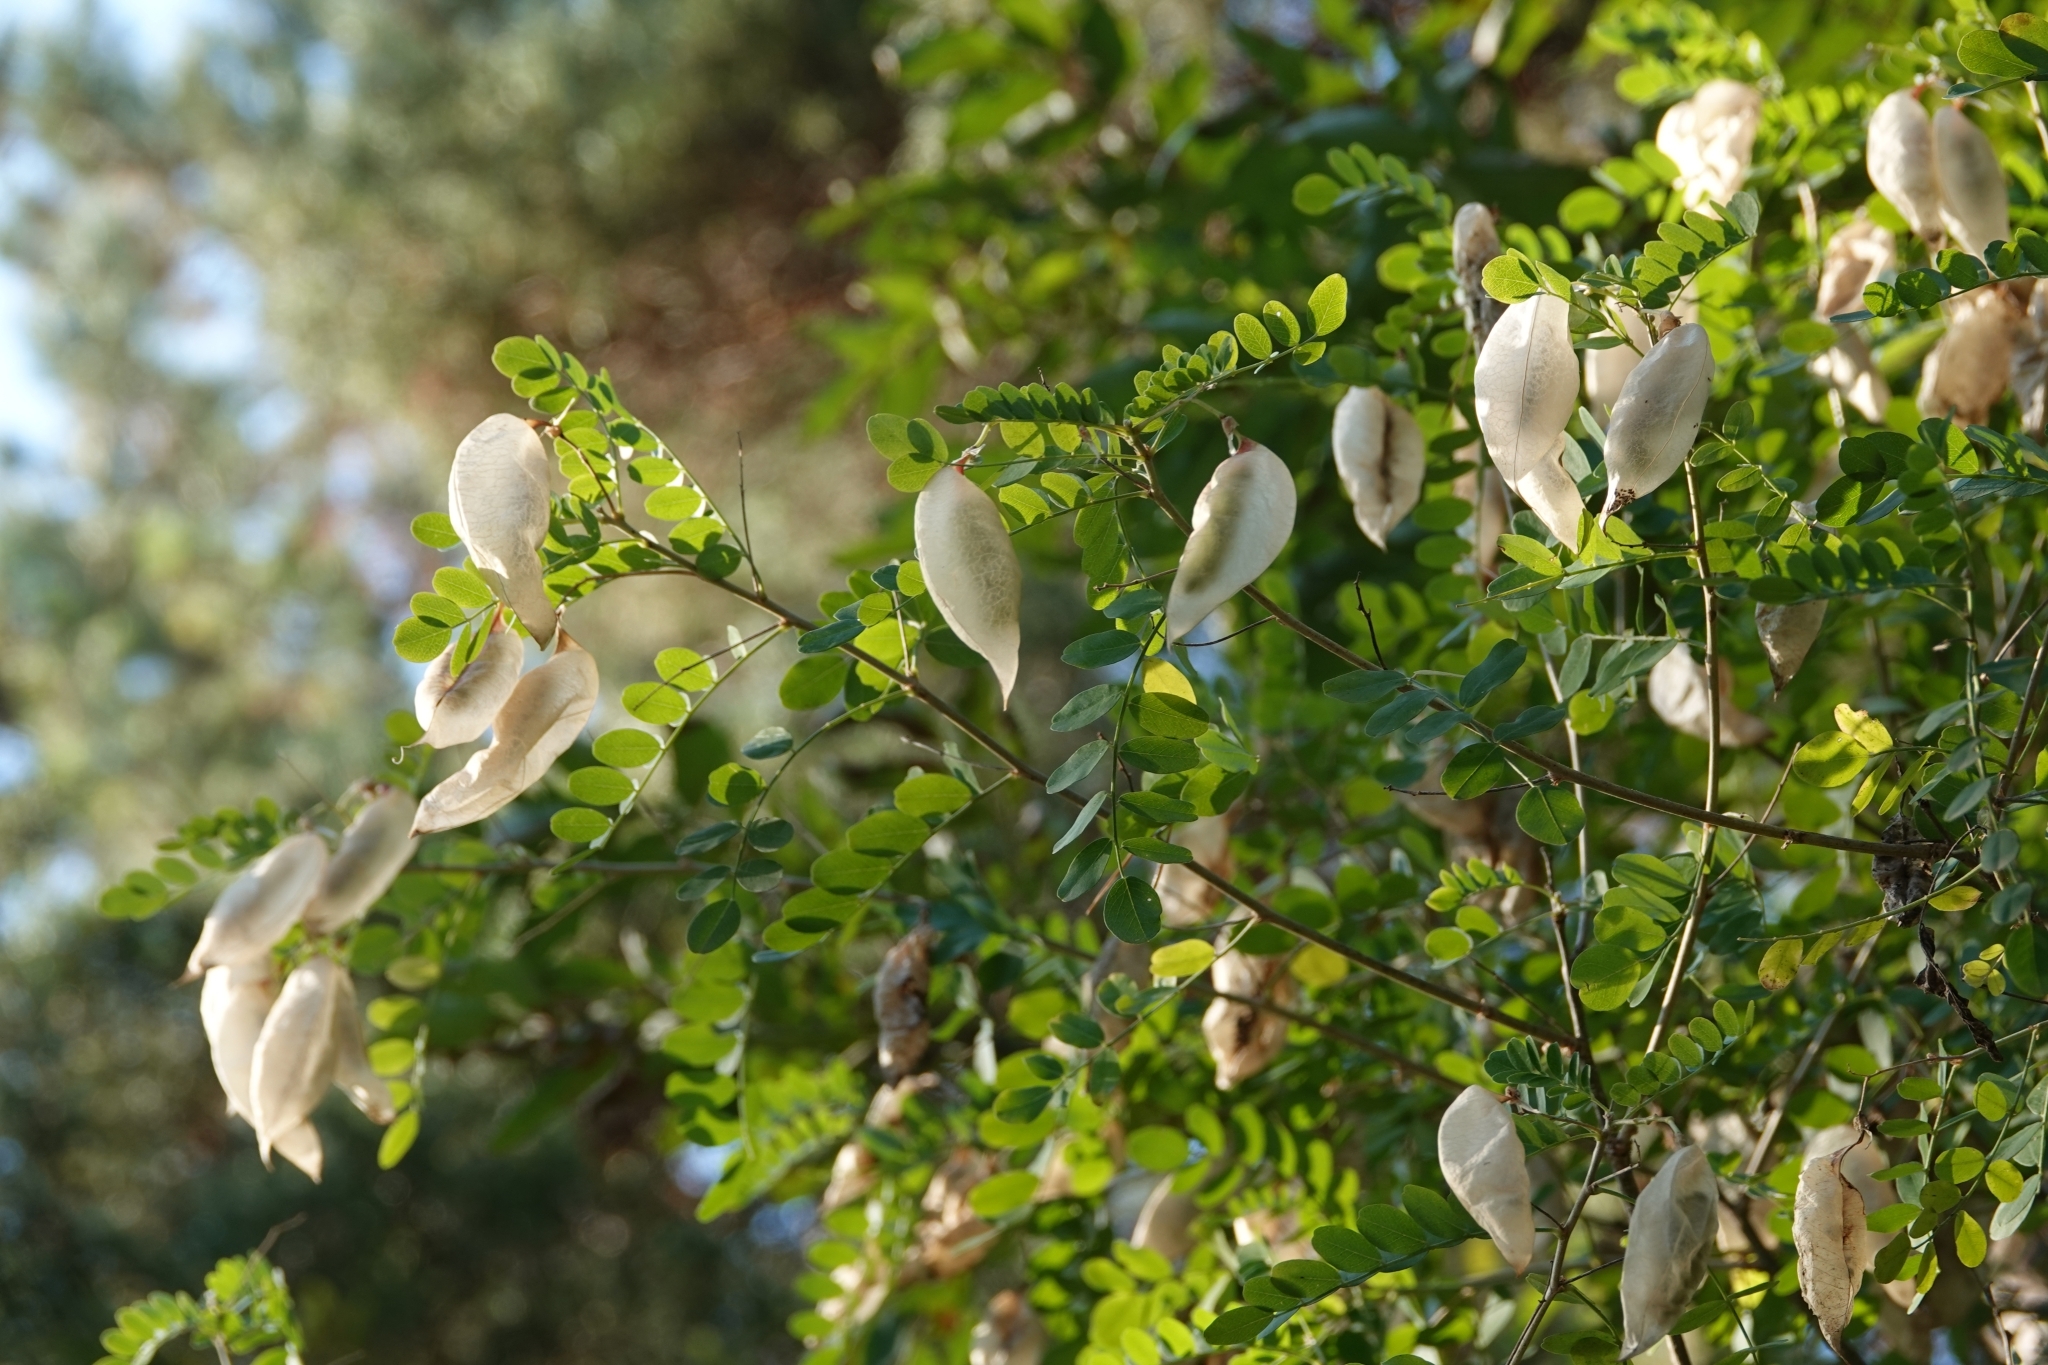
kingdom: Plantae
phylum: Tracheophyta
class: Magnoliopsida
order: Fabales
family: Fabaceae
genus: Colutea
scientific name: Colutea cilicica
